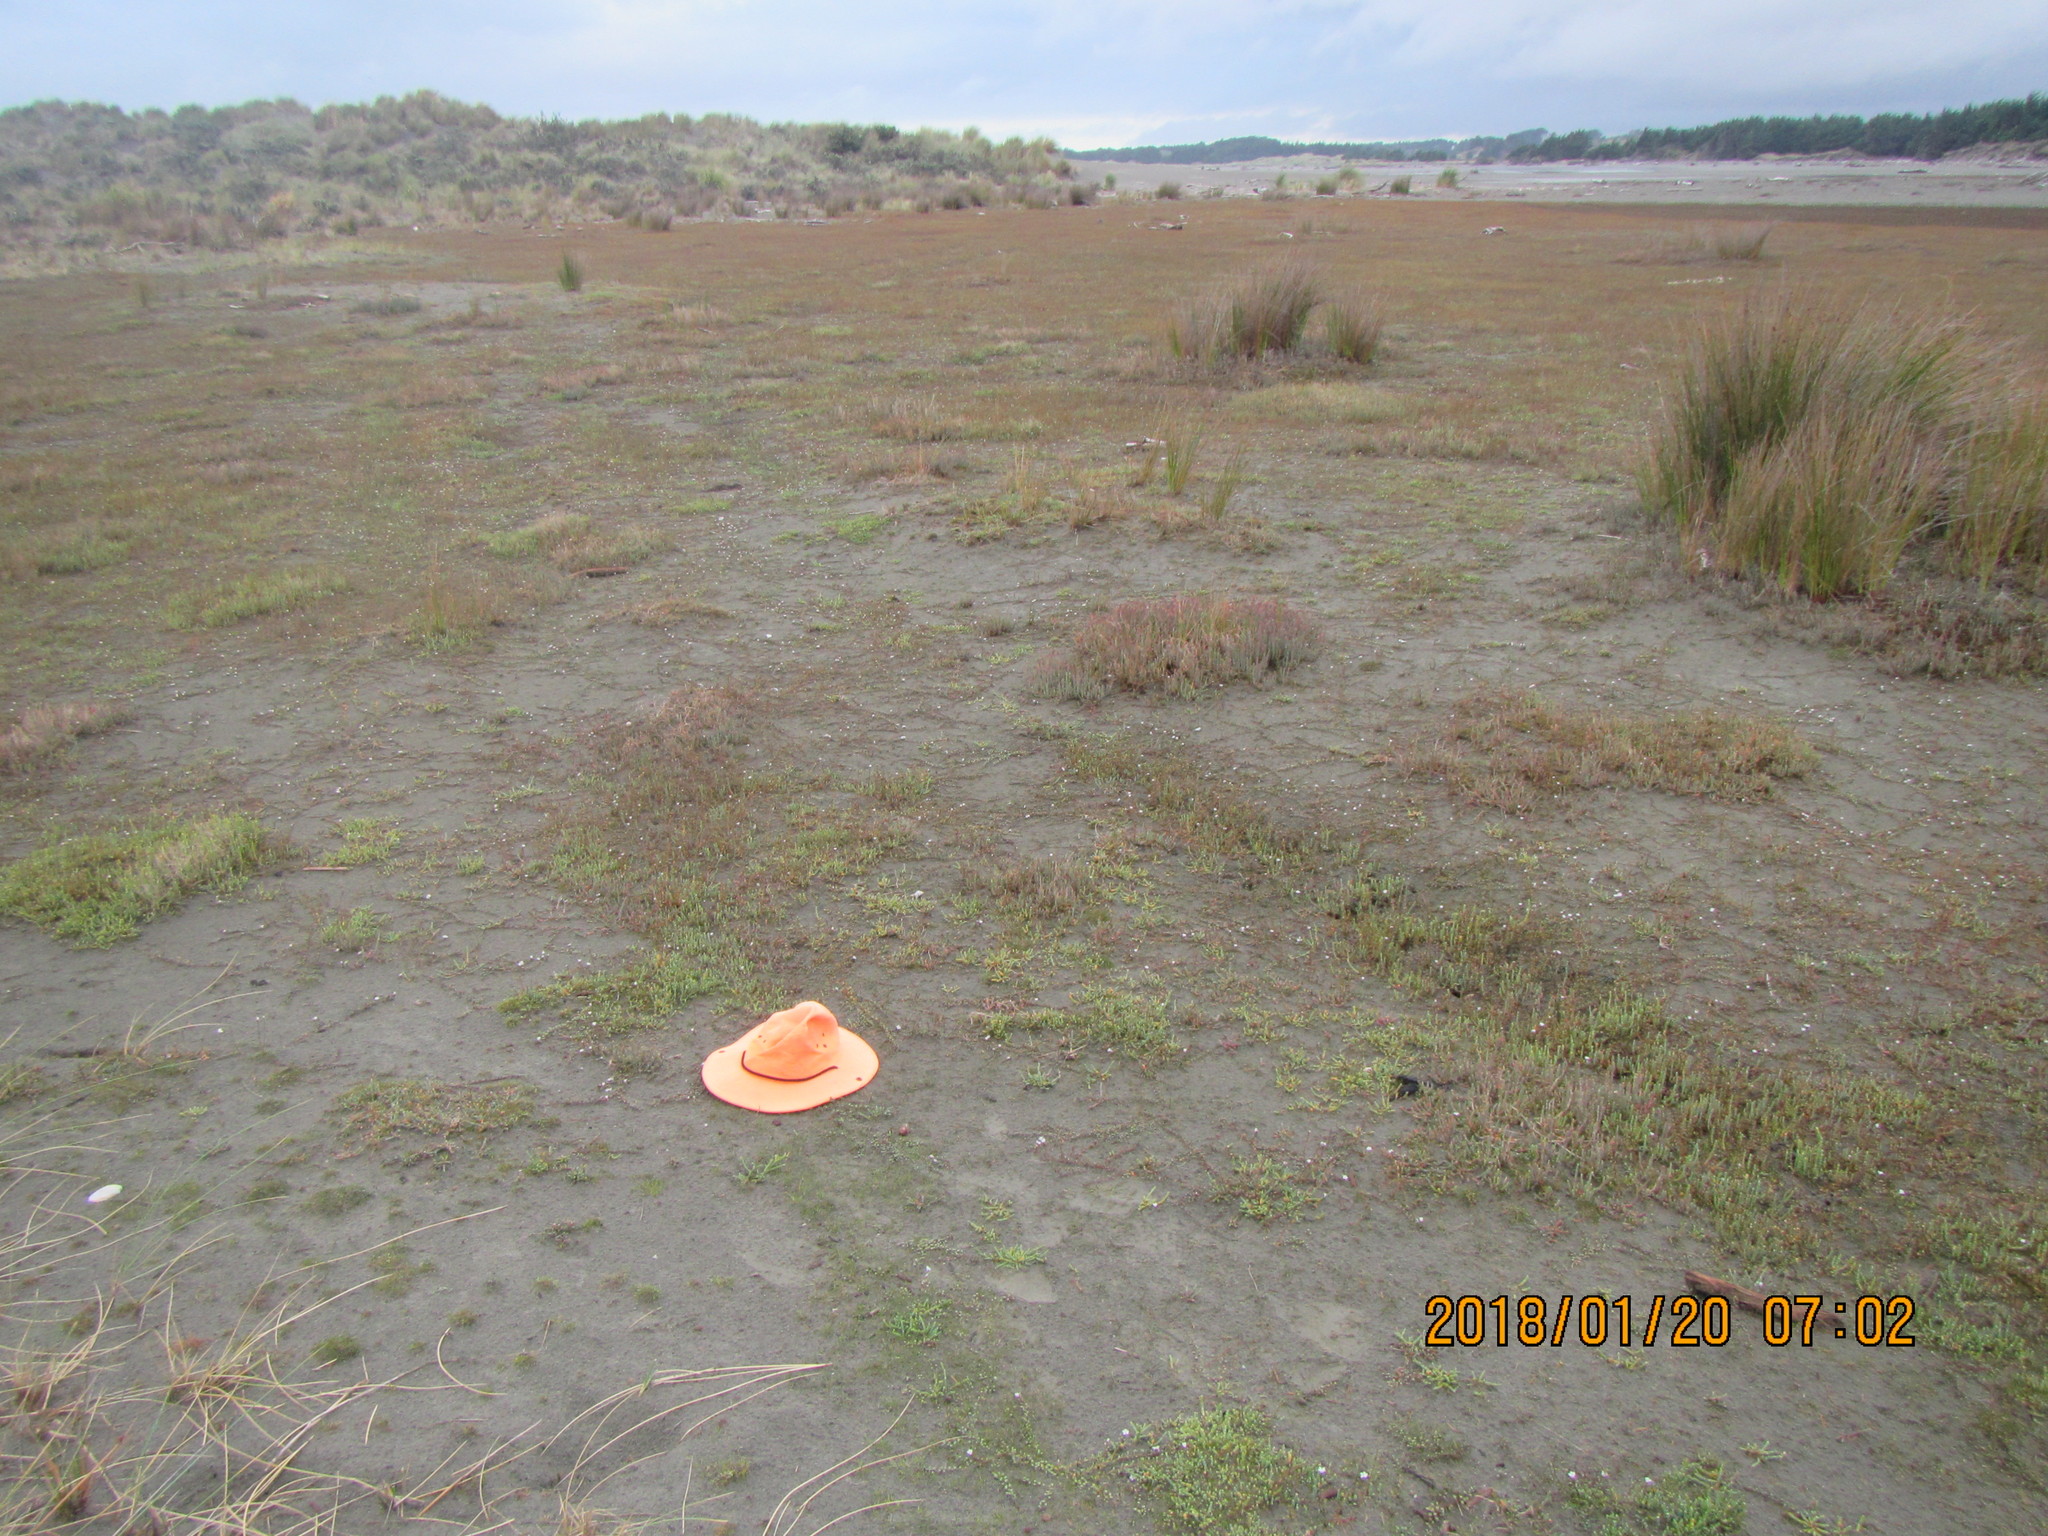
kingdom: Animalia
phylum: Mollusca
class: Gastropoda
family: Amphibolidae
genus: Amphibola
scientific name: Amphibola crenata
